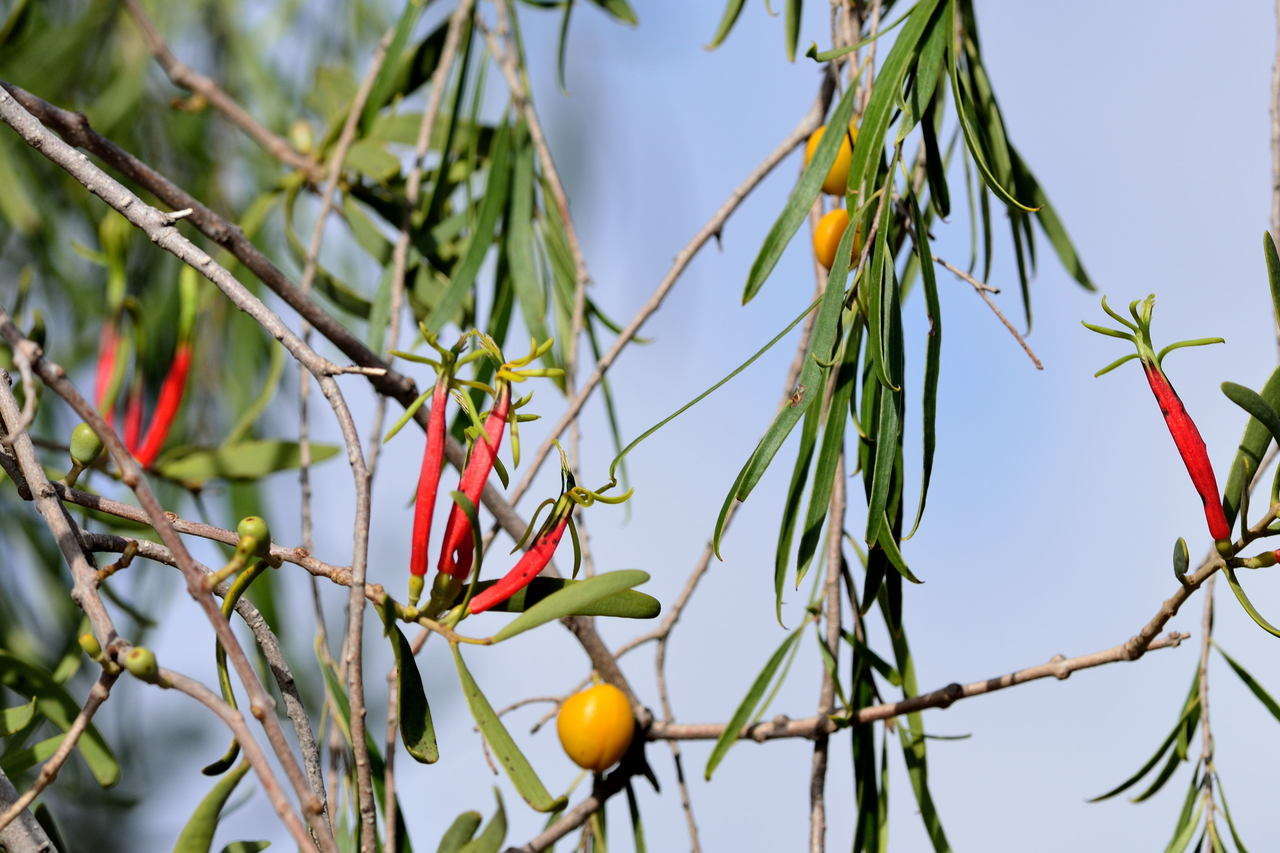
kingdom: Plantae
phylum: Tracheophyta
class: Magnoliopsida
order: Santalales
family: Loranthaceae
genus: Lysiana
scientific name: Lysiana exocarpi
